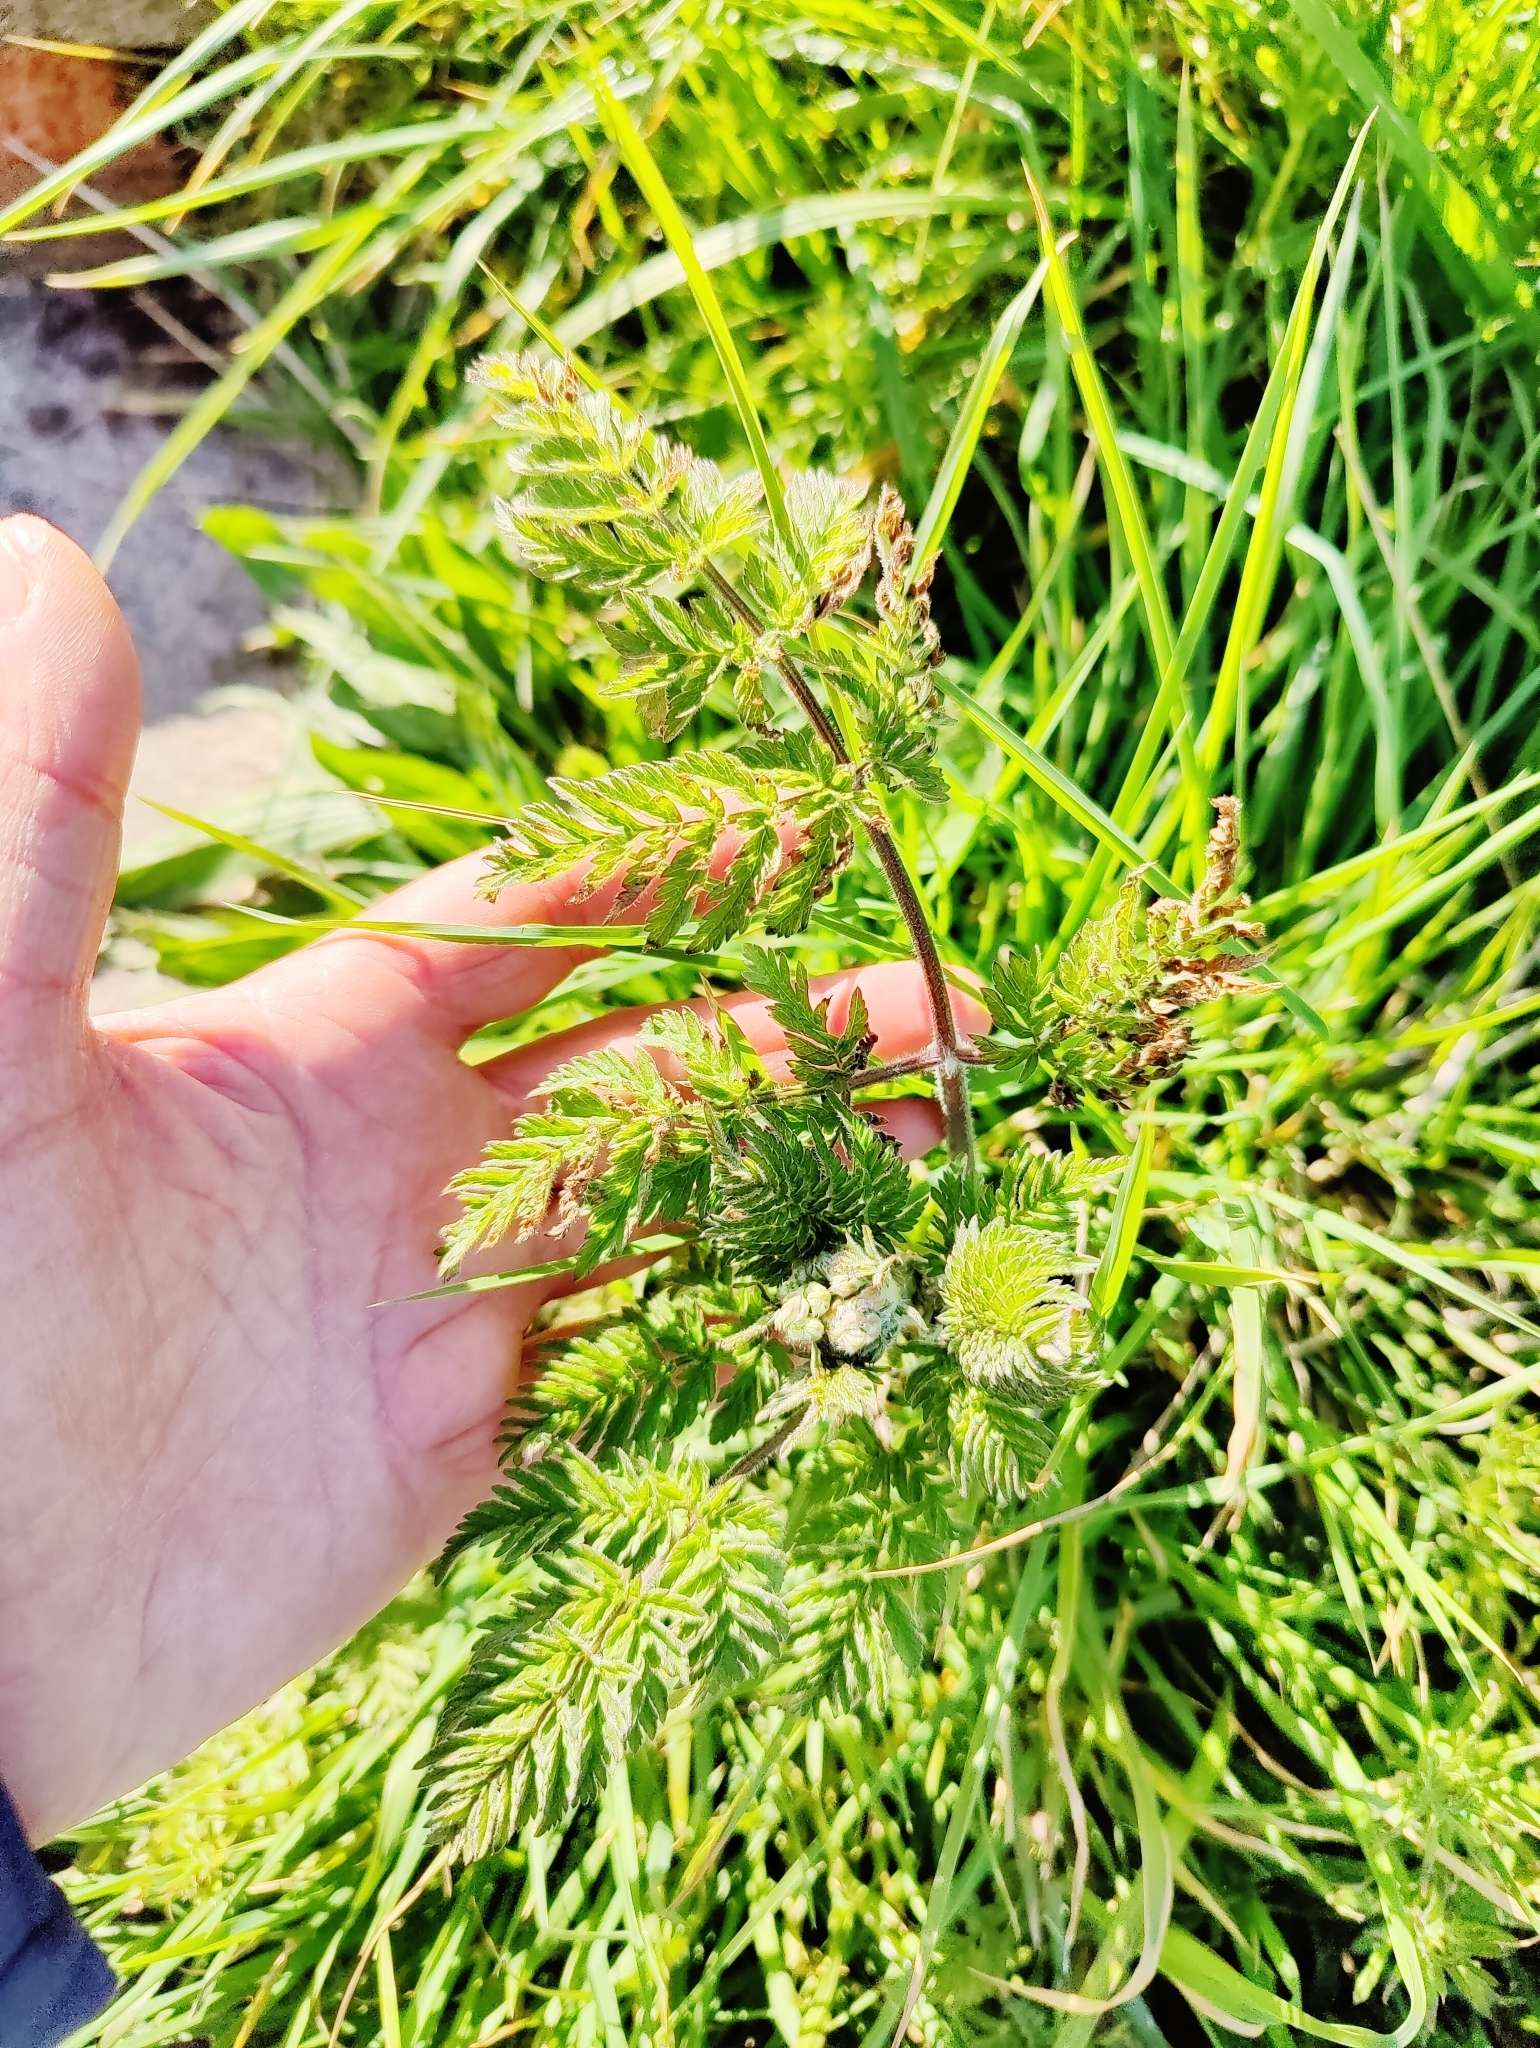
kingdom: Plantae
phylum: Tracheophyta
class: Magnoliopsida
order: Apiales
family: Apiaceae
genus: Anthriscus
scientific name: Anthriscus sylvestris
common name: Cow parsley
